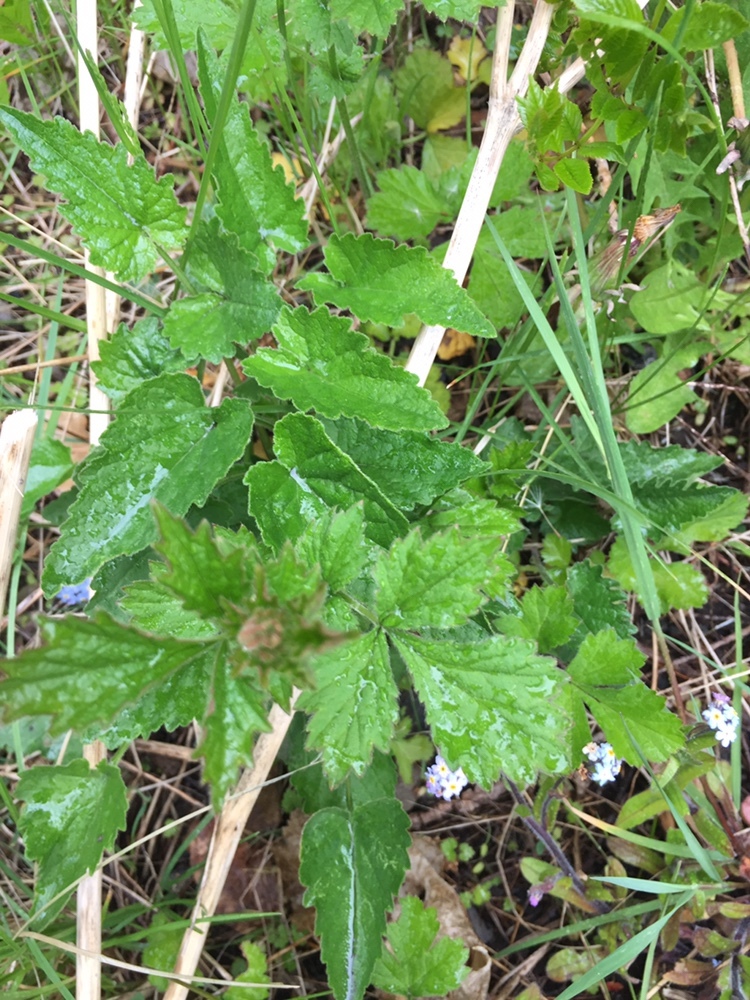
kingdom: Plantae
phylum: Tracheophyta
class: Magnoliopsida
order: Rosales
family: Rosaceae
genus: Geum
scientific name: Geum urbanum
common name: Wood avens
